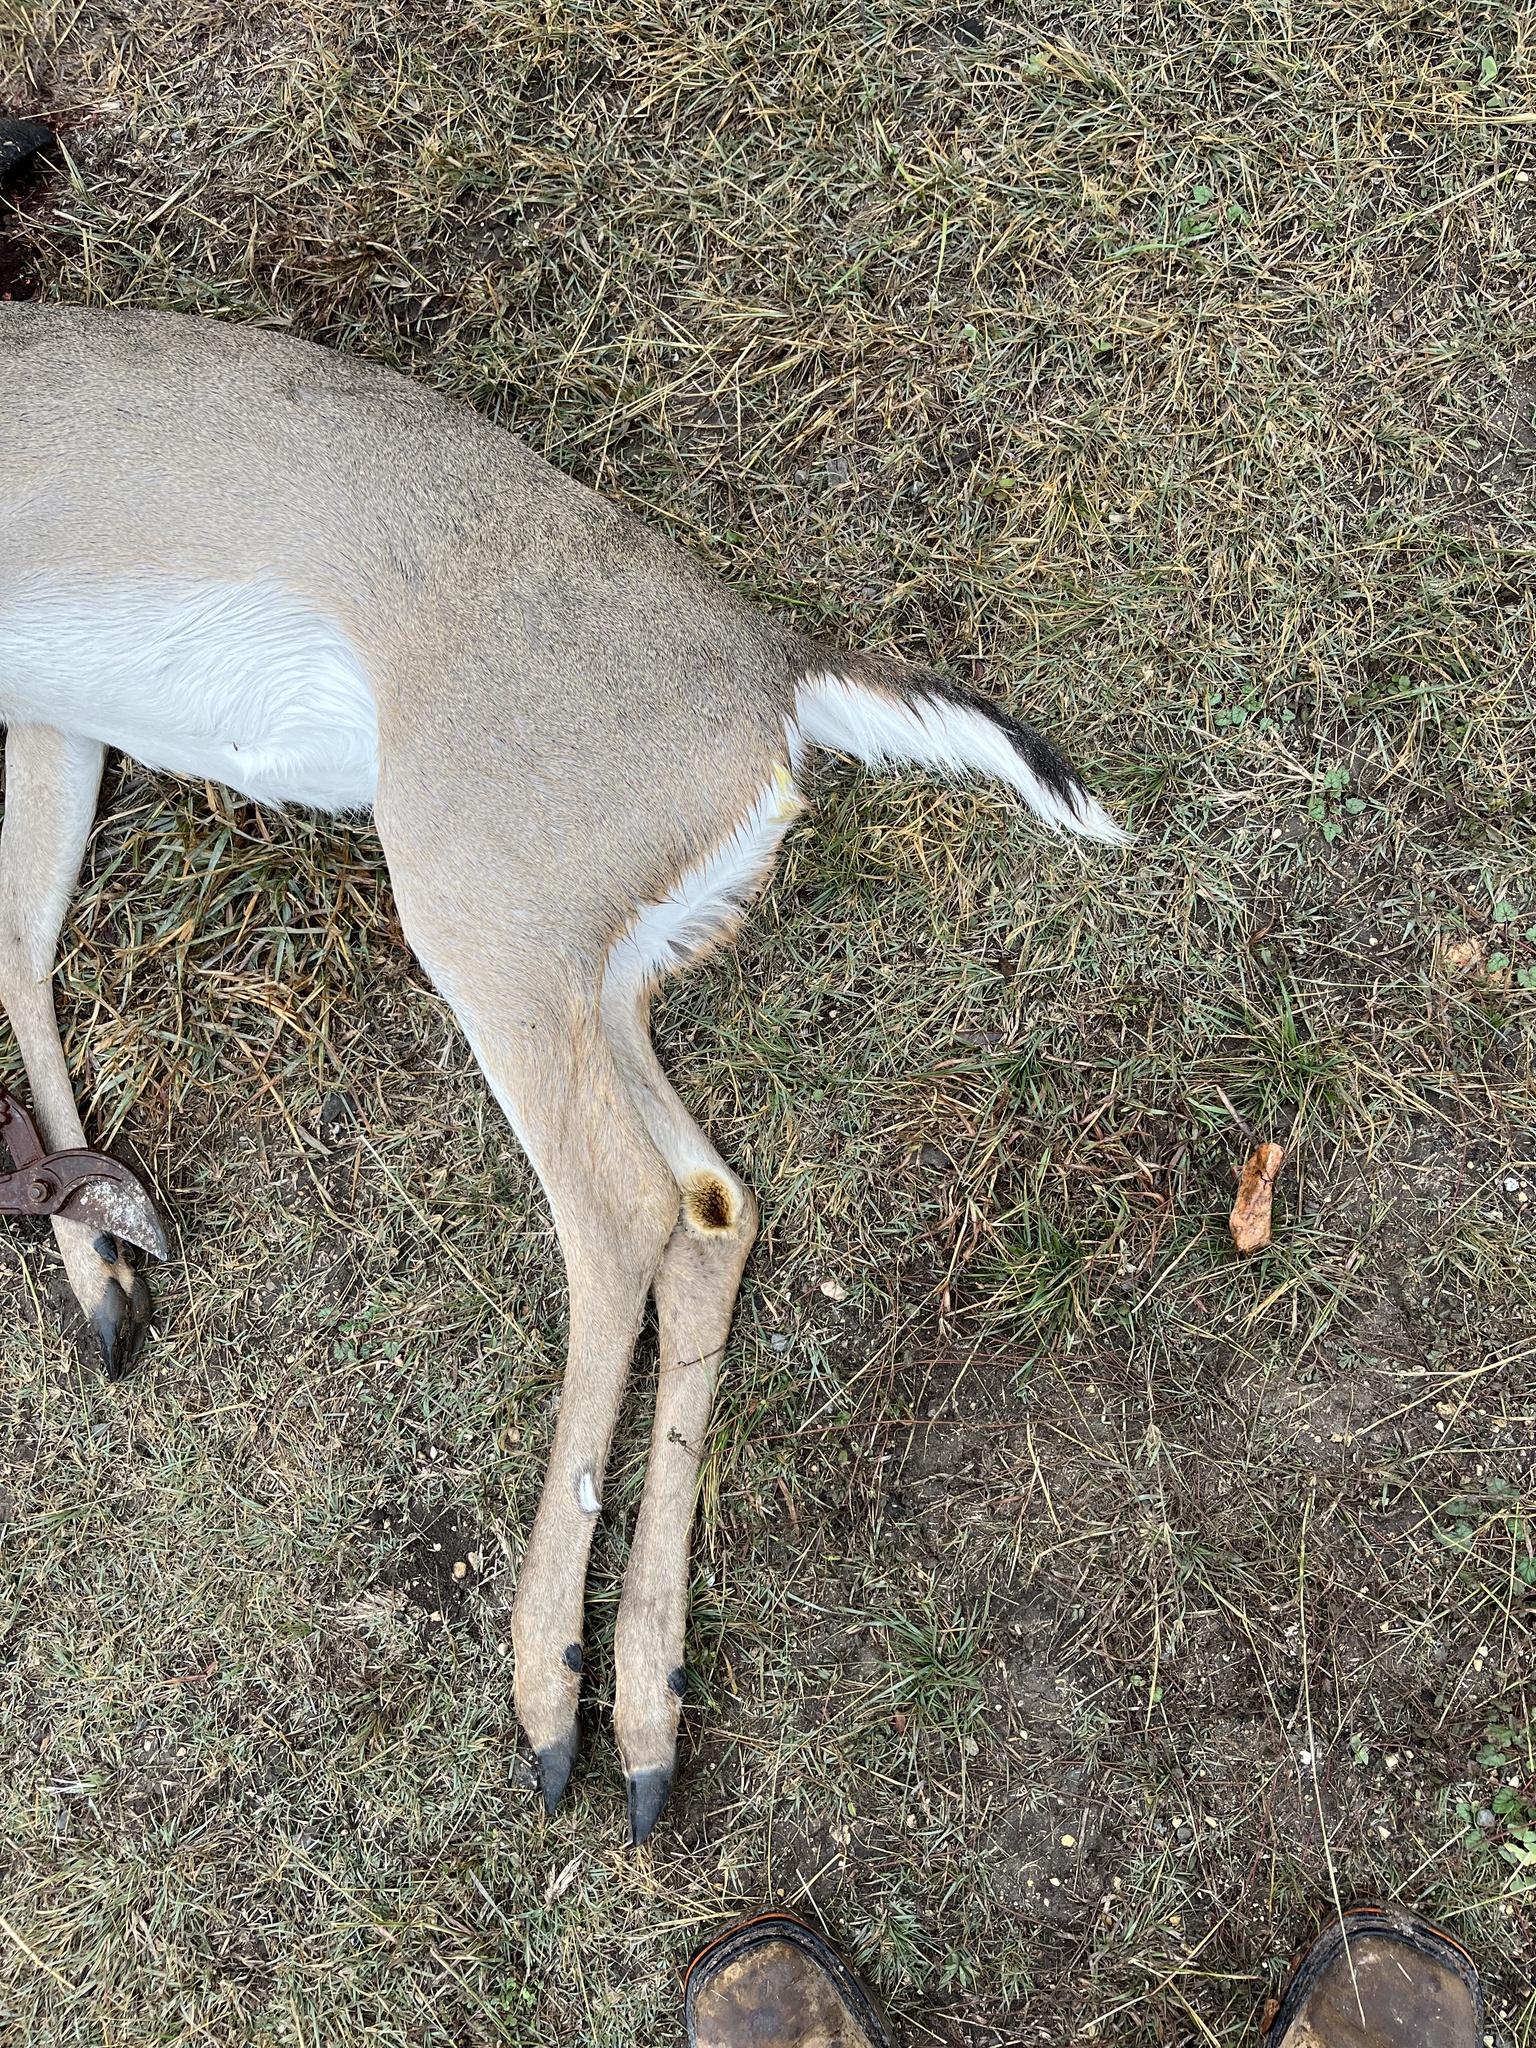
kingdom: Animalia
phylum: Chordata
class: Mammalia
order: Artiodactyla
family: Cervidae
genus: Odocoileus
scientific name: Odocoileus virginianus
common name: White-tailed deer
